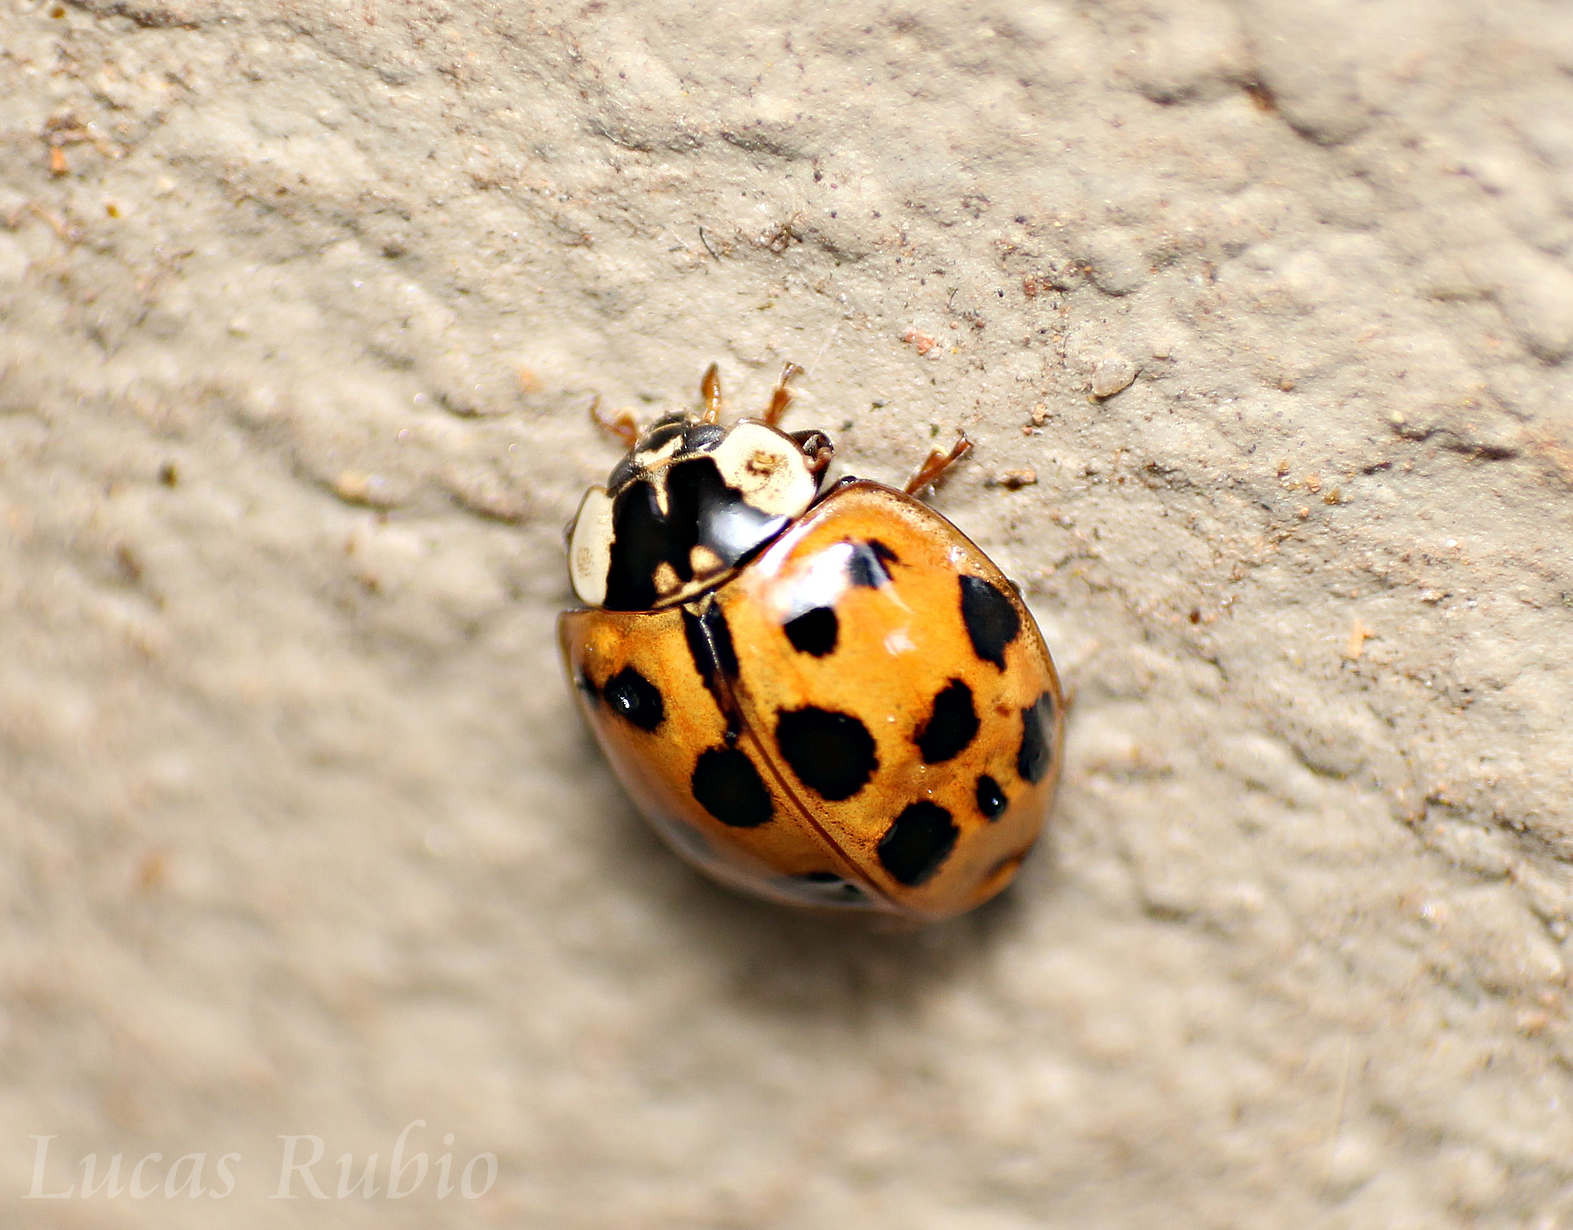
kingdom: Animalia
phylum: Arthropoda
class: Insecta
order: Coleoptera
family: Coccinellidae
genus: Harmonia
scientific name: Harmonia axyridis
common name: Harlequin ladybird
